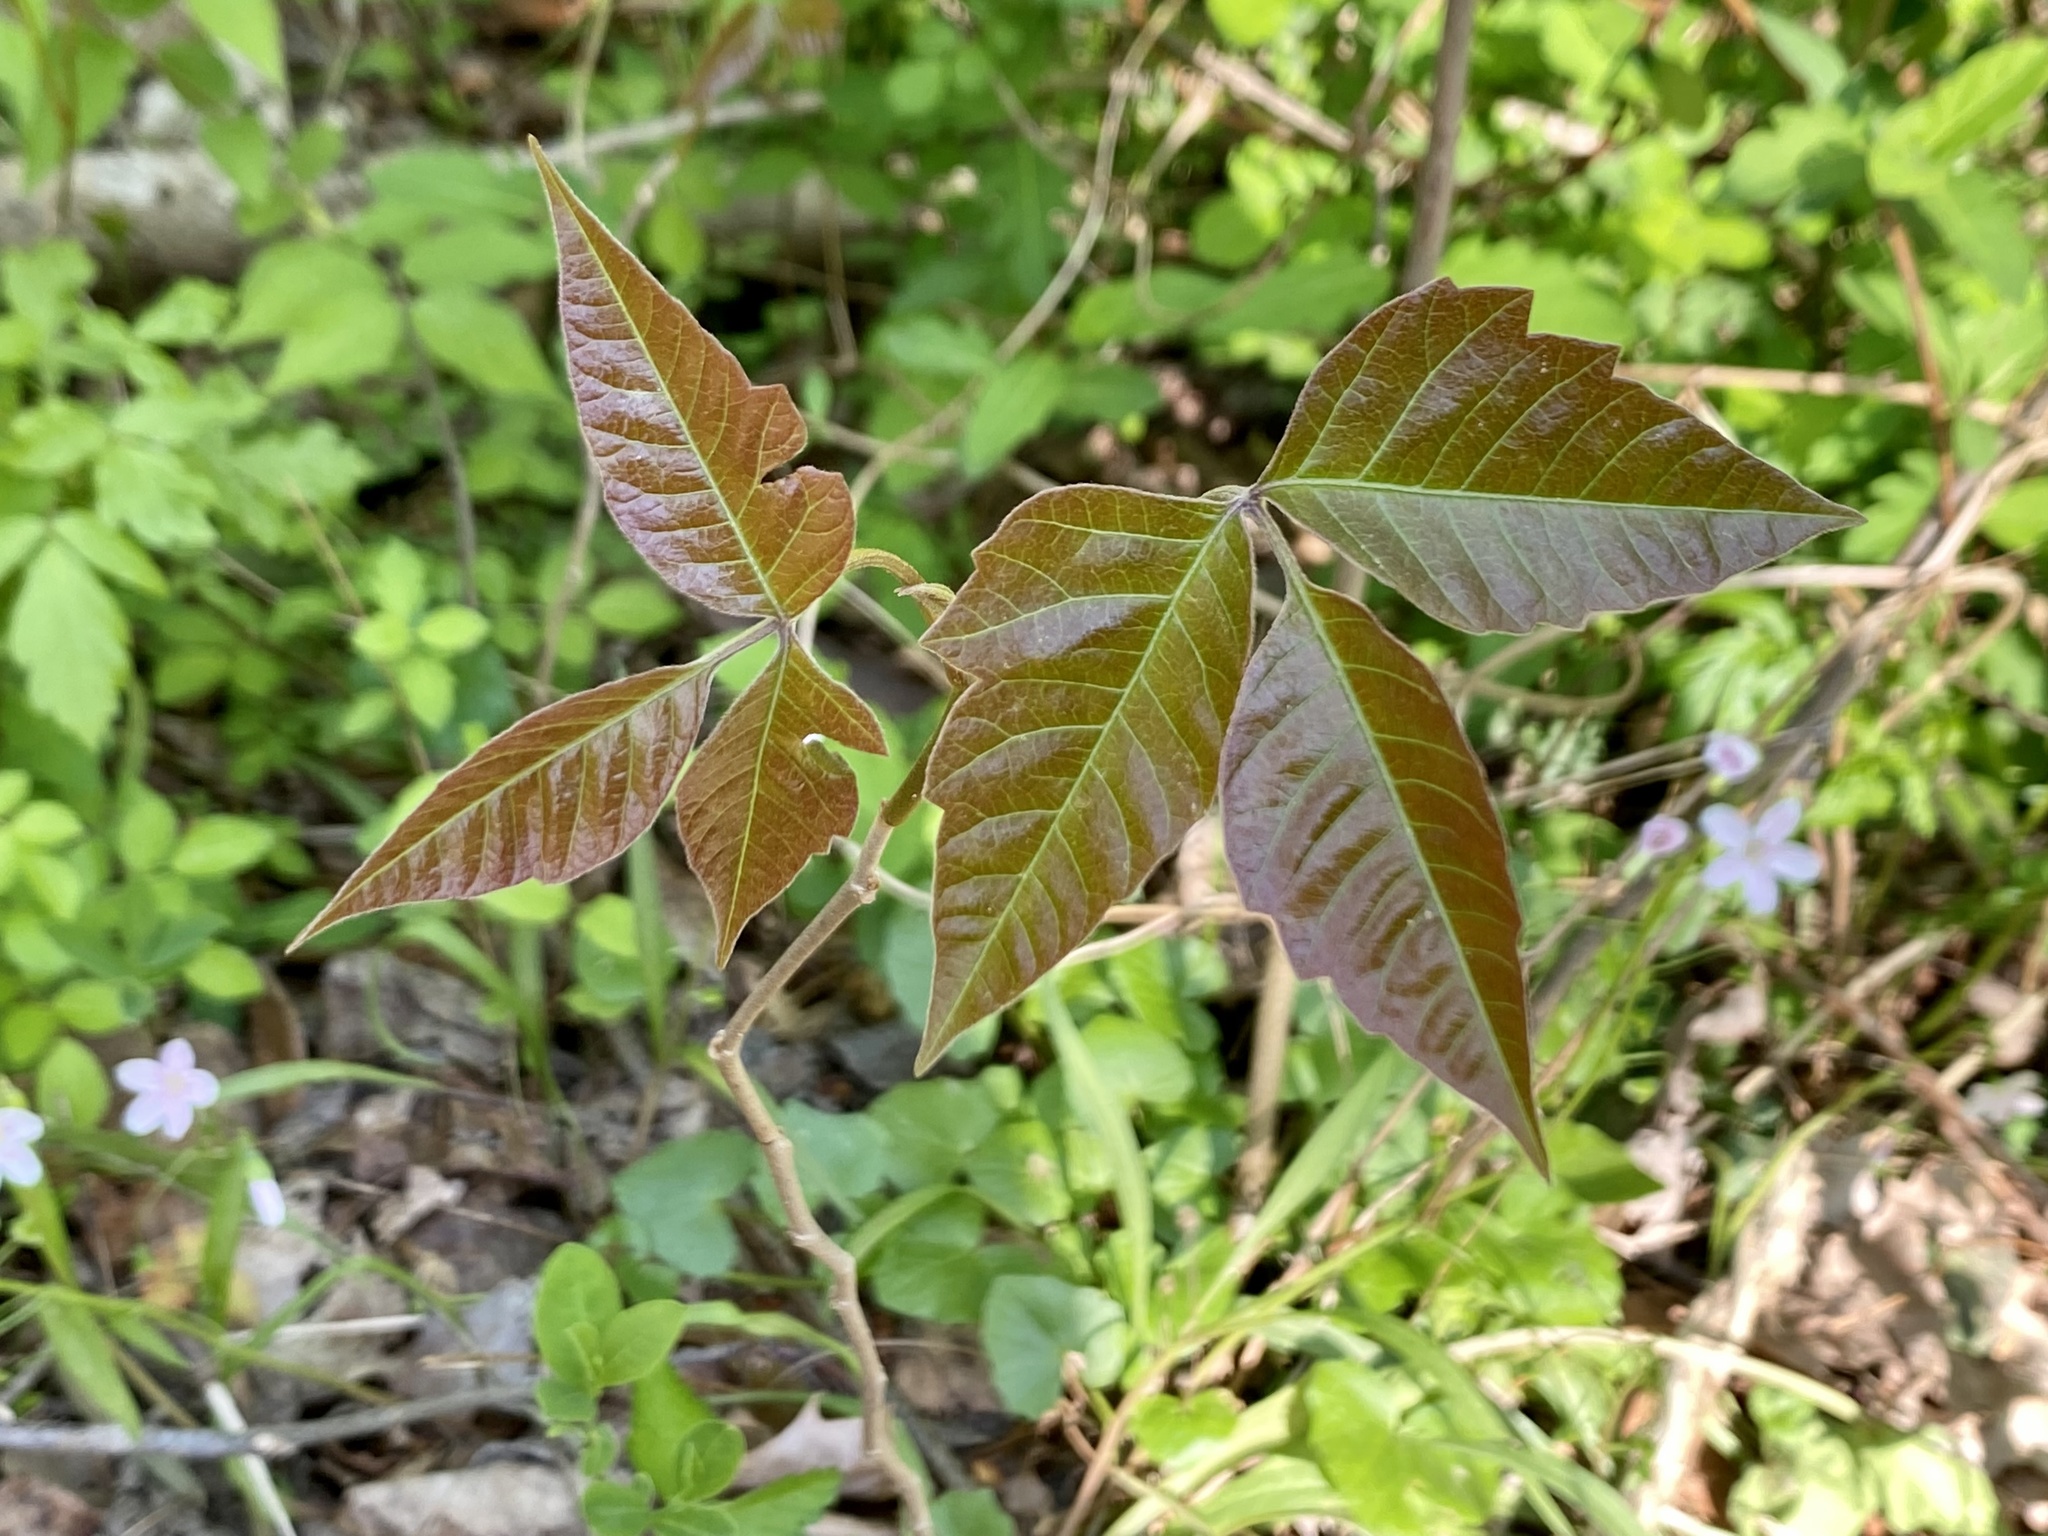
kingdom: Plantae
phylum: Tracheophyta
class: Magnoliopsida
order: Sapindales
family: Anacardiaceae
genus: Toxicodendron
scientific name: Toxicodendron radicans
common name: Poison ivy
